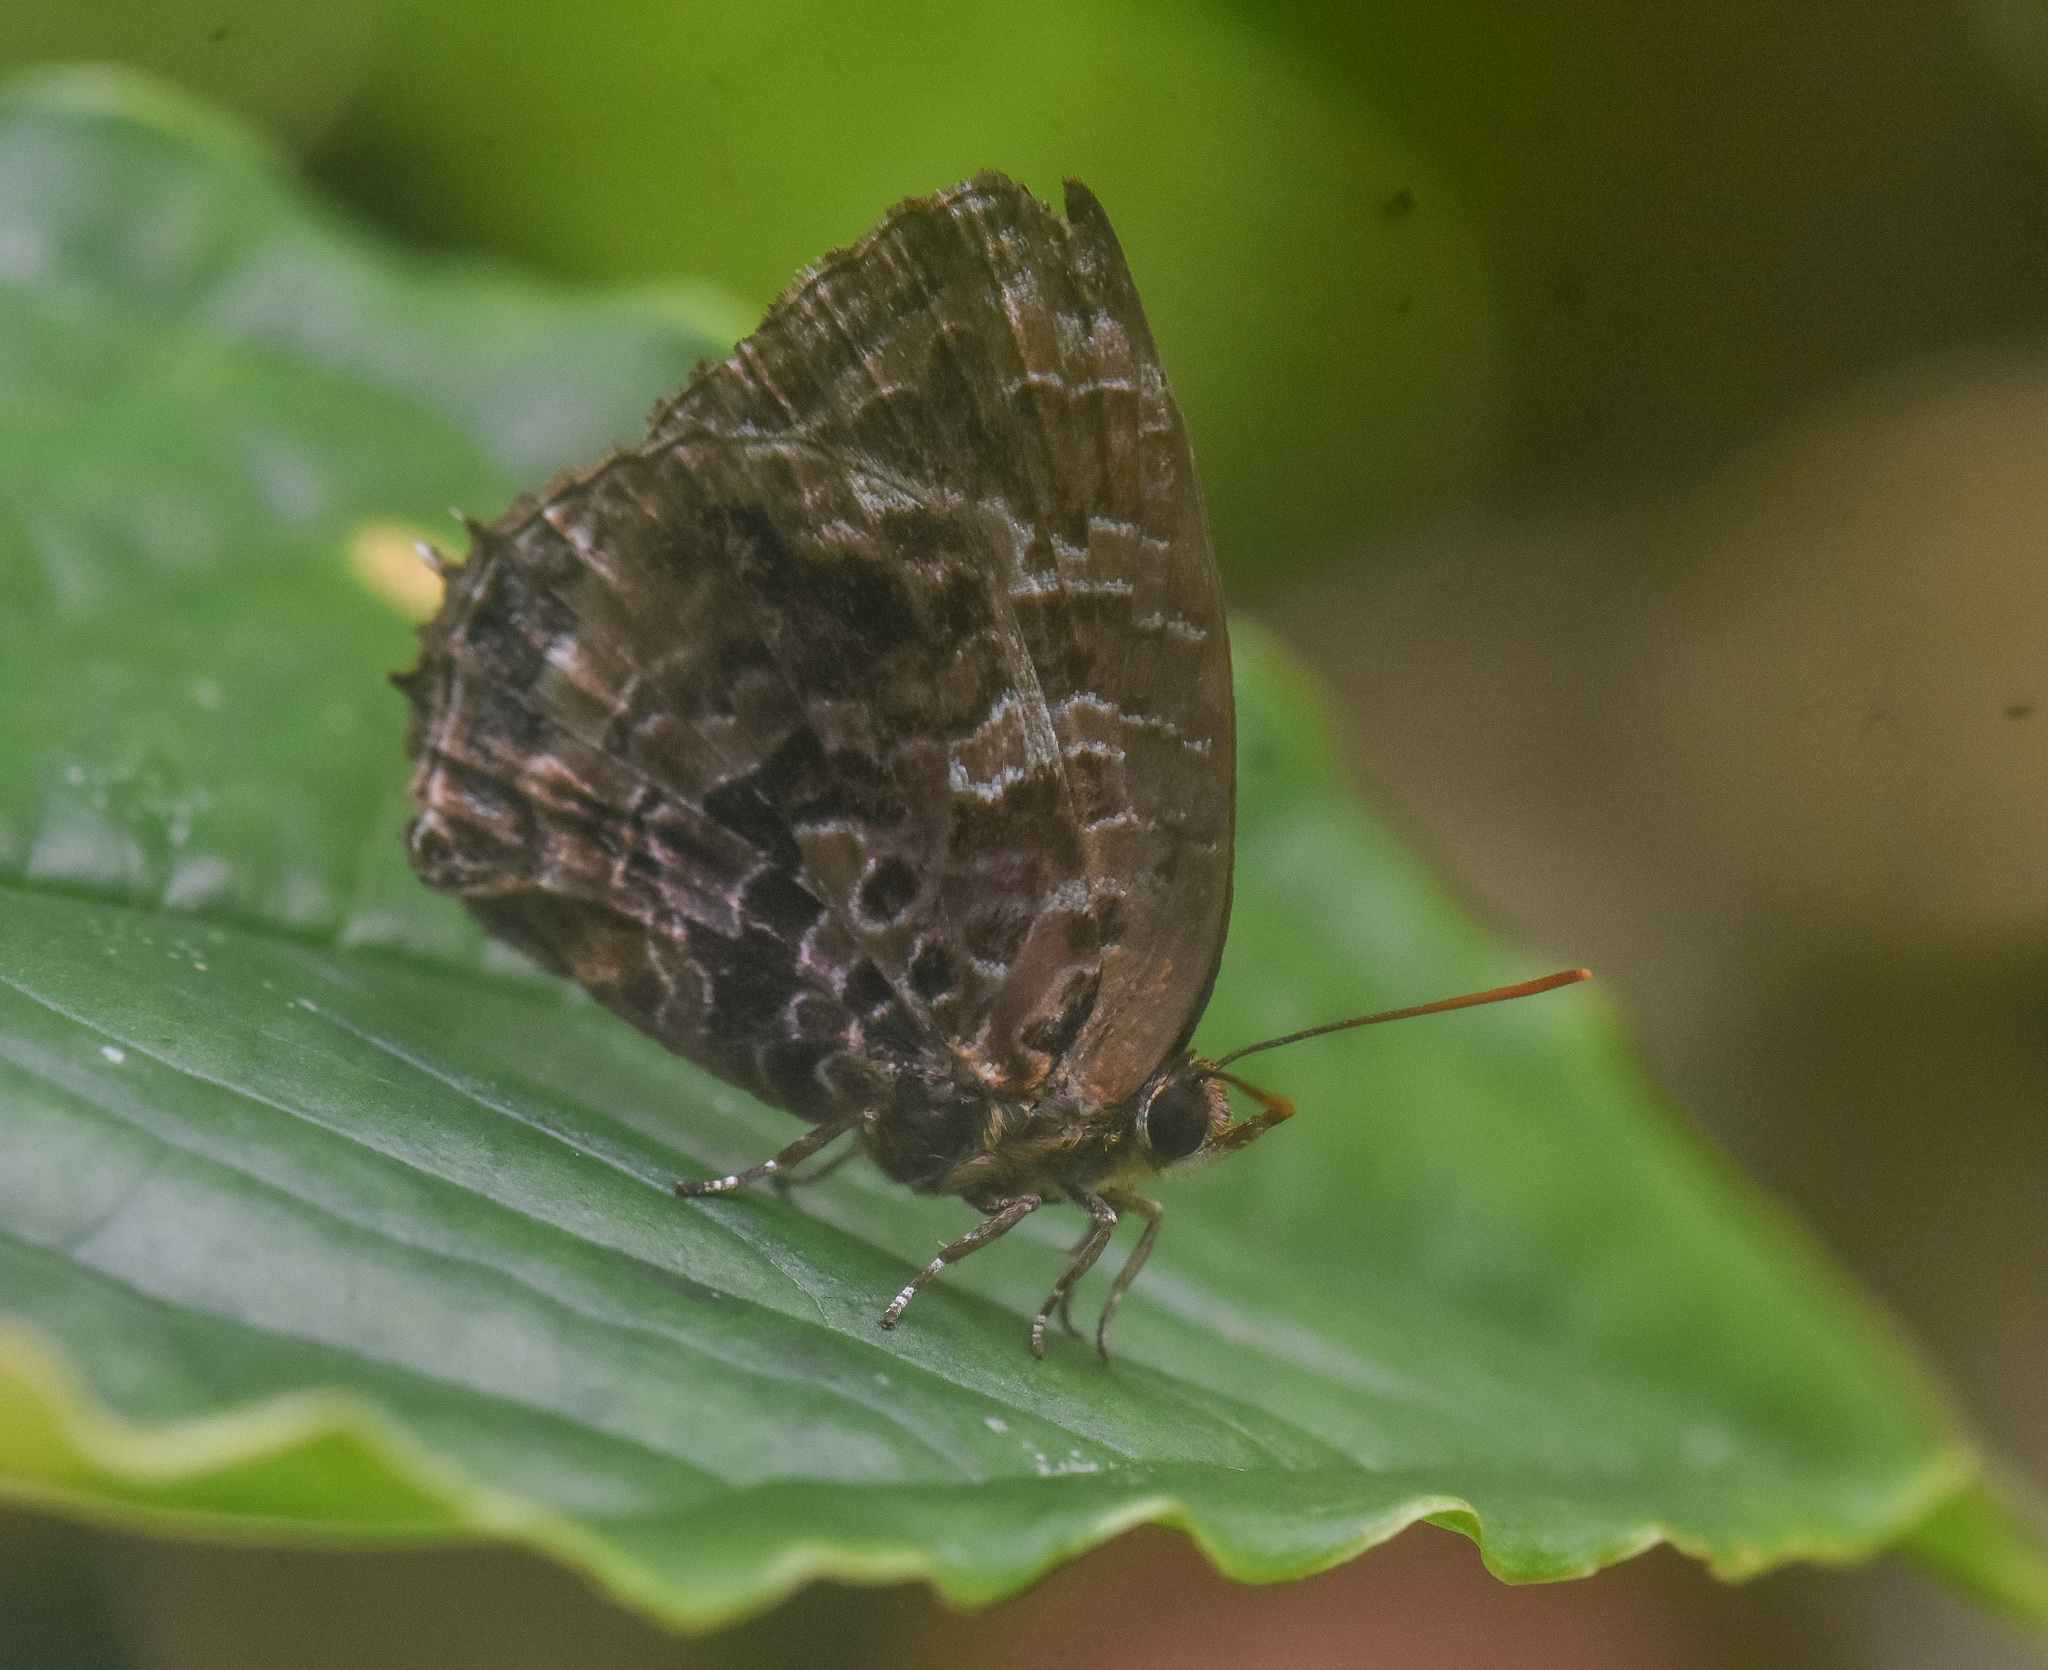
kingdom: Animalia
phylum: Arthropoda
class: Insecta
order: Lepidoptera
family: Lycaenidae
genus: Arhopala
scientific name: Arhopala abseus
